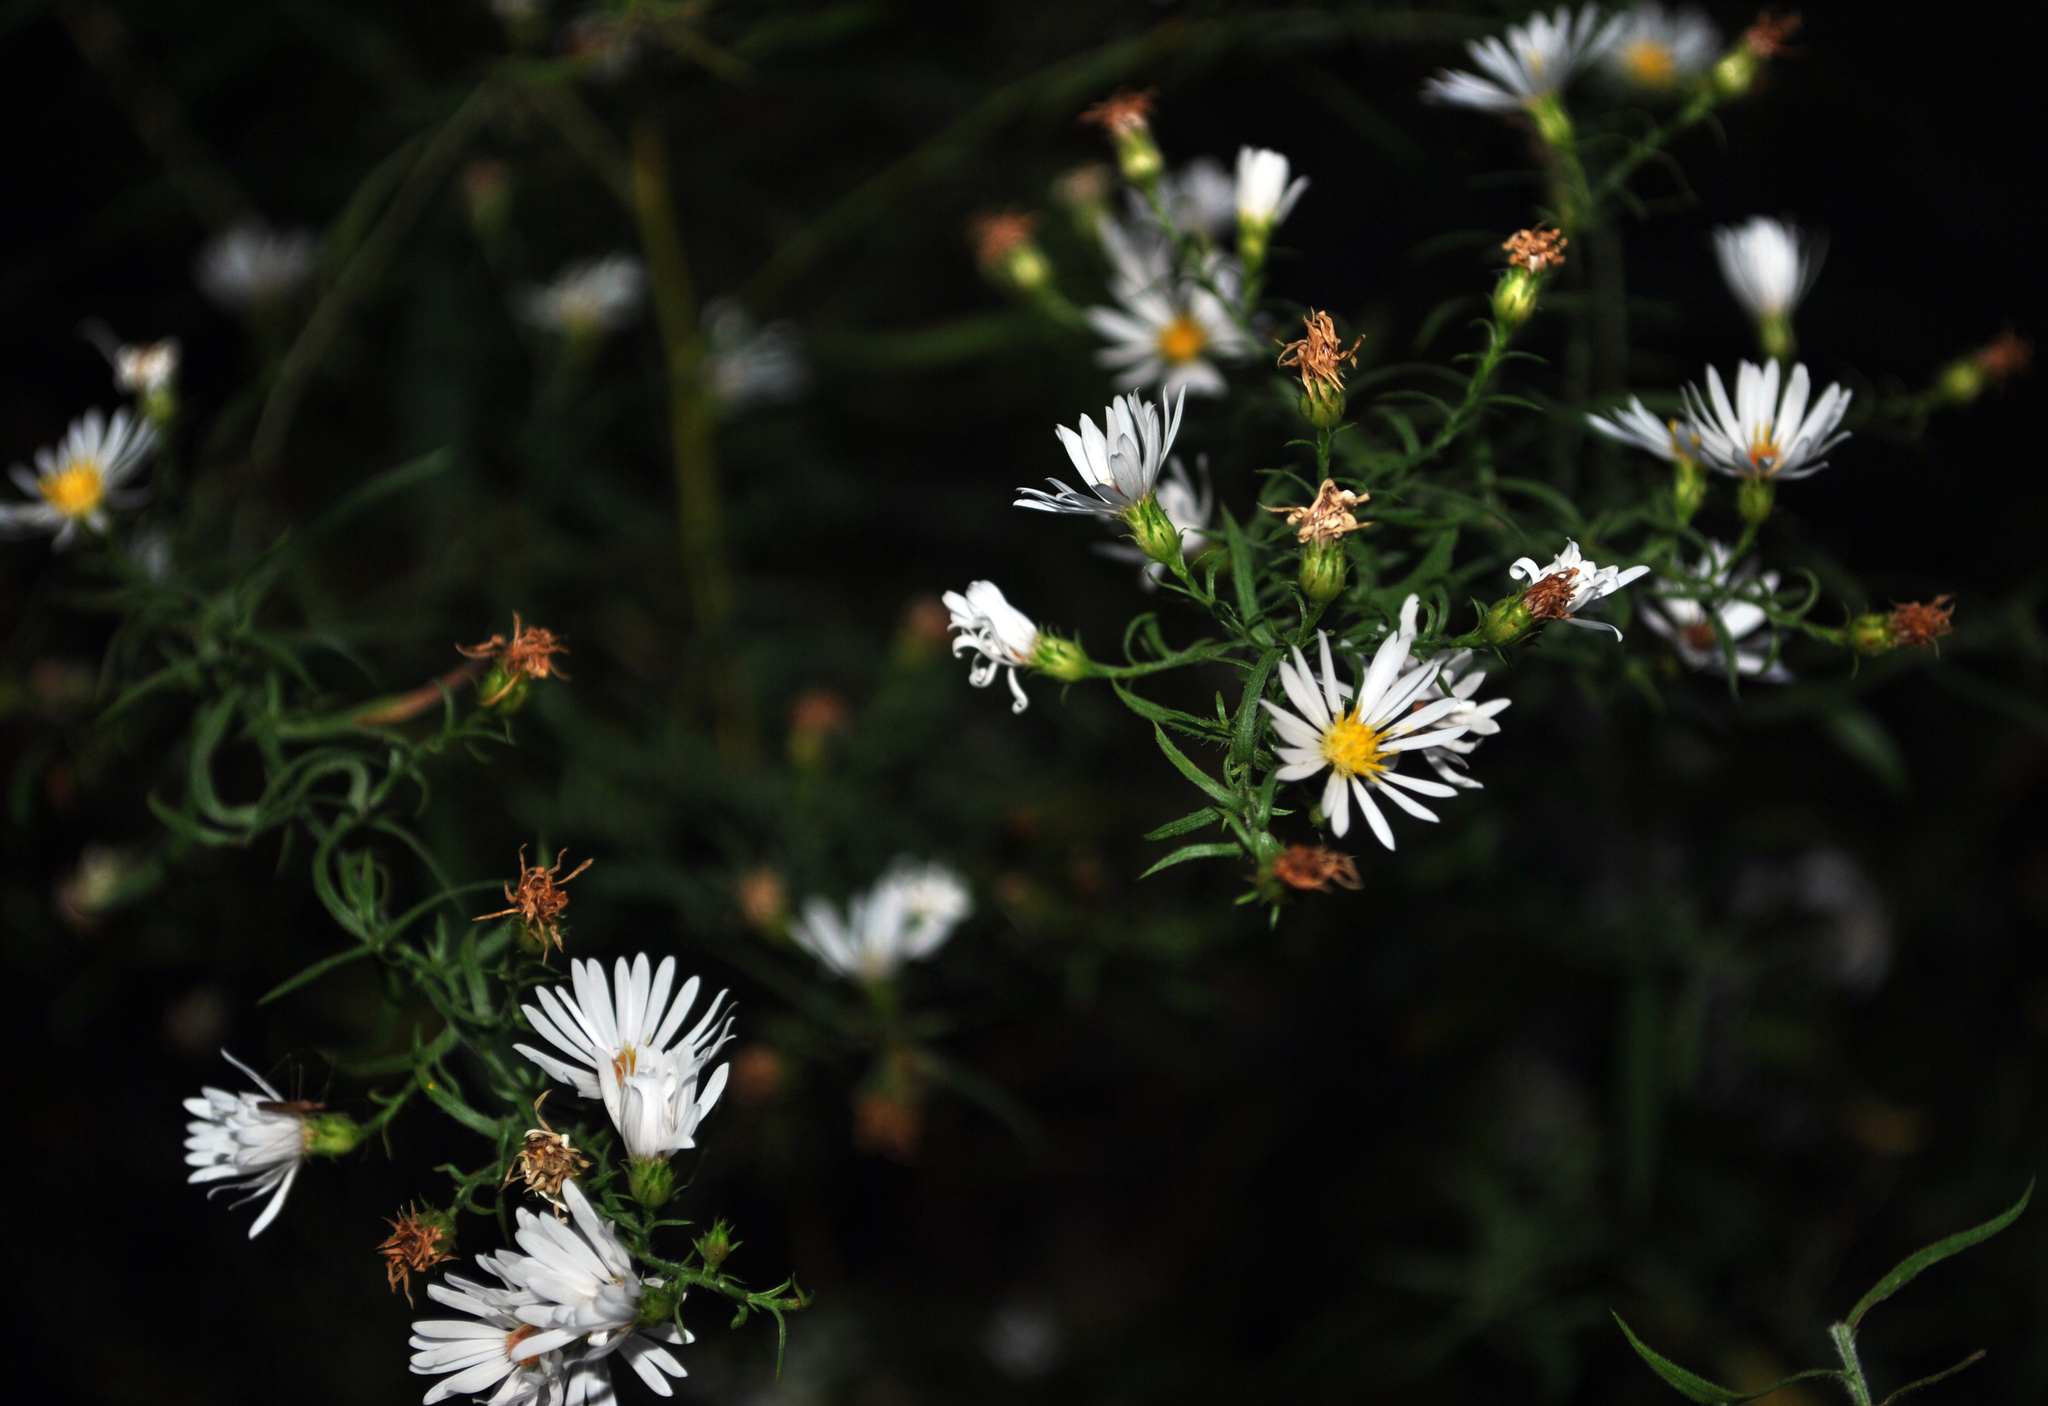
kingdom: Plantae
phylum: Tracheophyta
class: Magnoliopsida
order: Asterales
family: Asteraceae
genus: Symphyotrichum
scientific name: Symphyotrichum pilosum
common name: Awl aster
